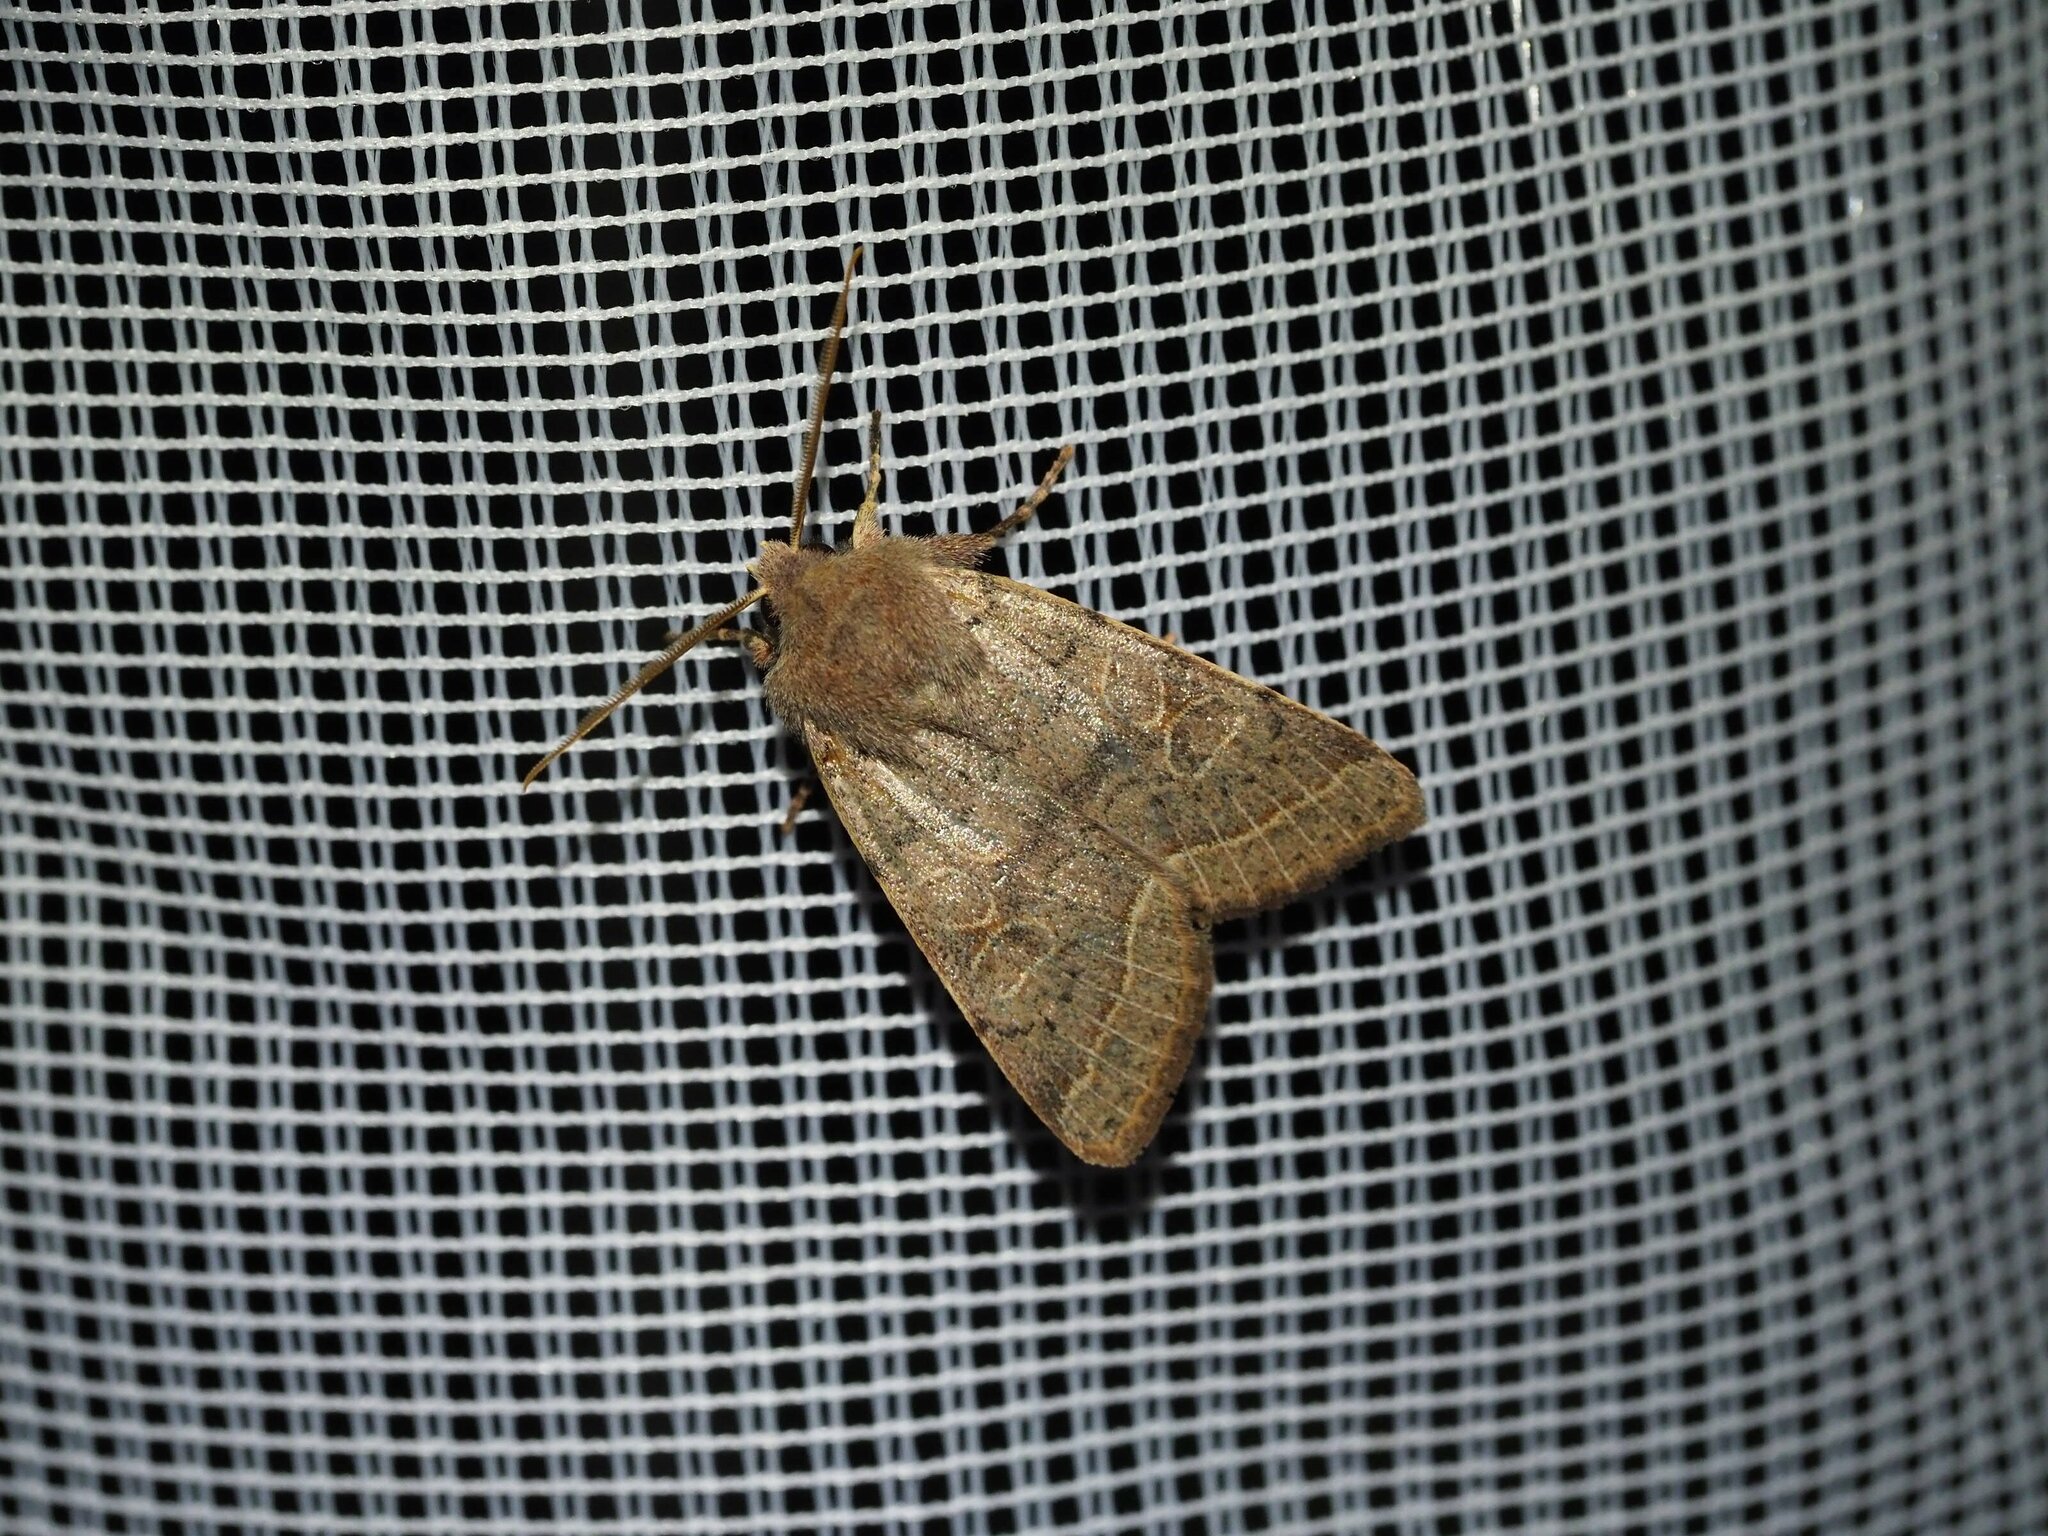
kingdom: Animalia
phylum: Arthropoda
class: Insecta
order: Lepidoptera
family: Noctuidae
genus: Orthosia
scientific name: Orthosia cerasi
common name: Common quaker
